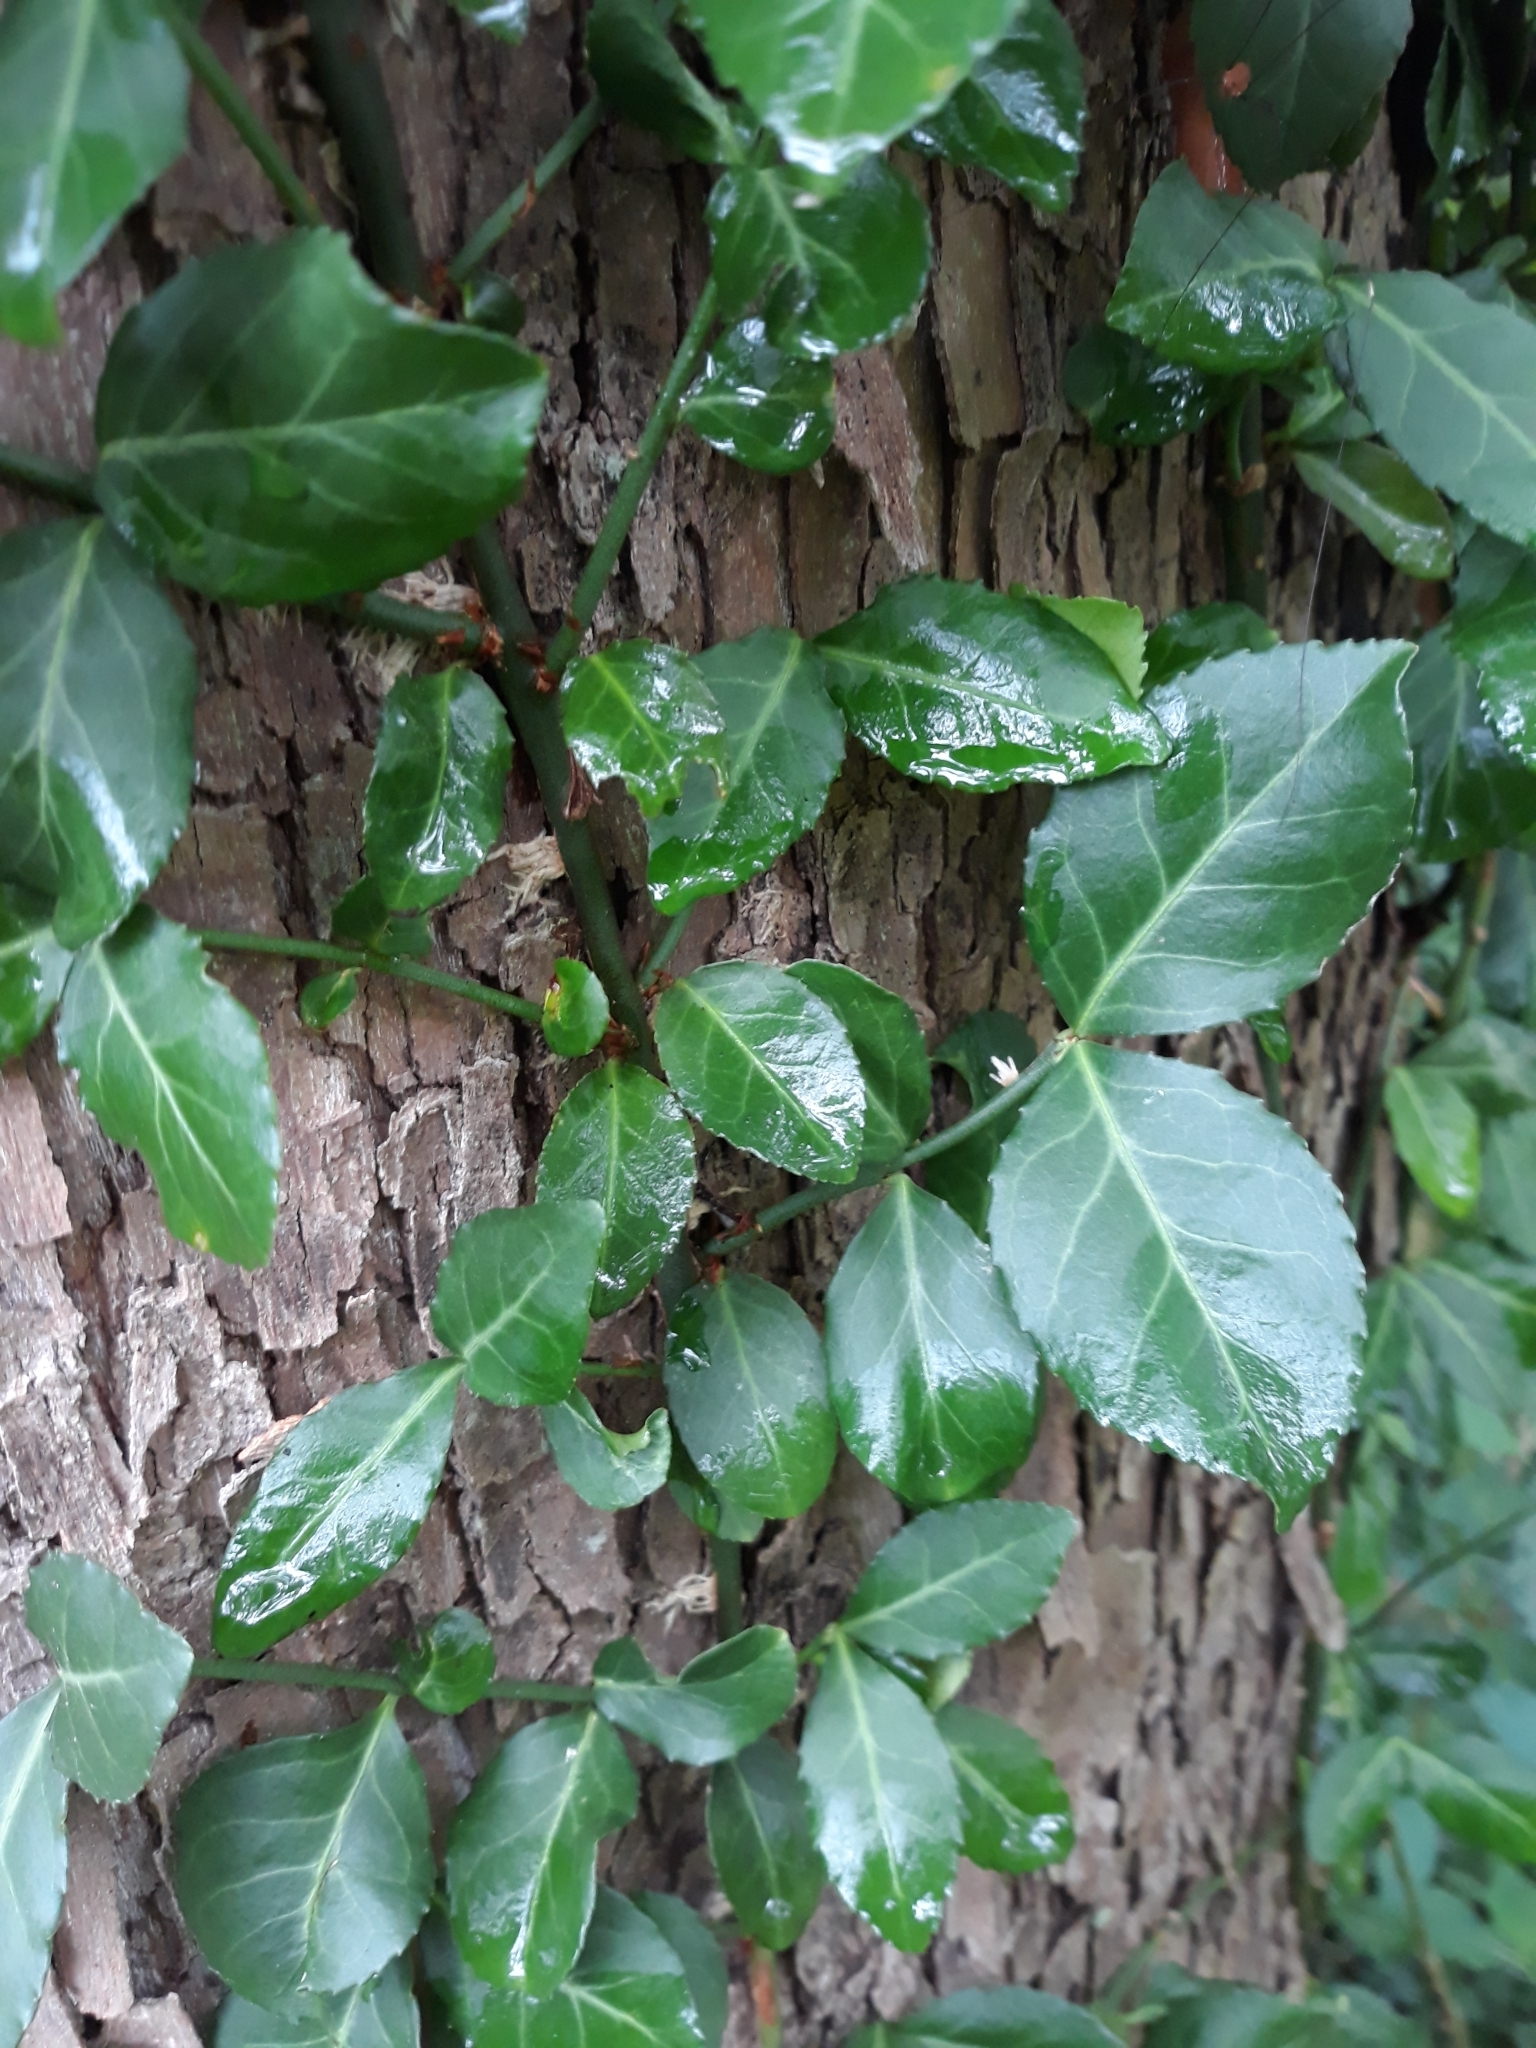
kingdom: Plantae
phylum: Tracheophyta
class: Magnoliopsida
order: Celastrales
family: Celastraceae
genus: Euonymus
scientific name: Euonymus fortunei
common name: Climbing euonymus
